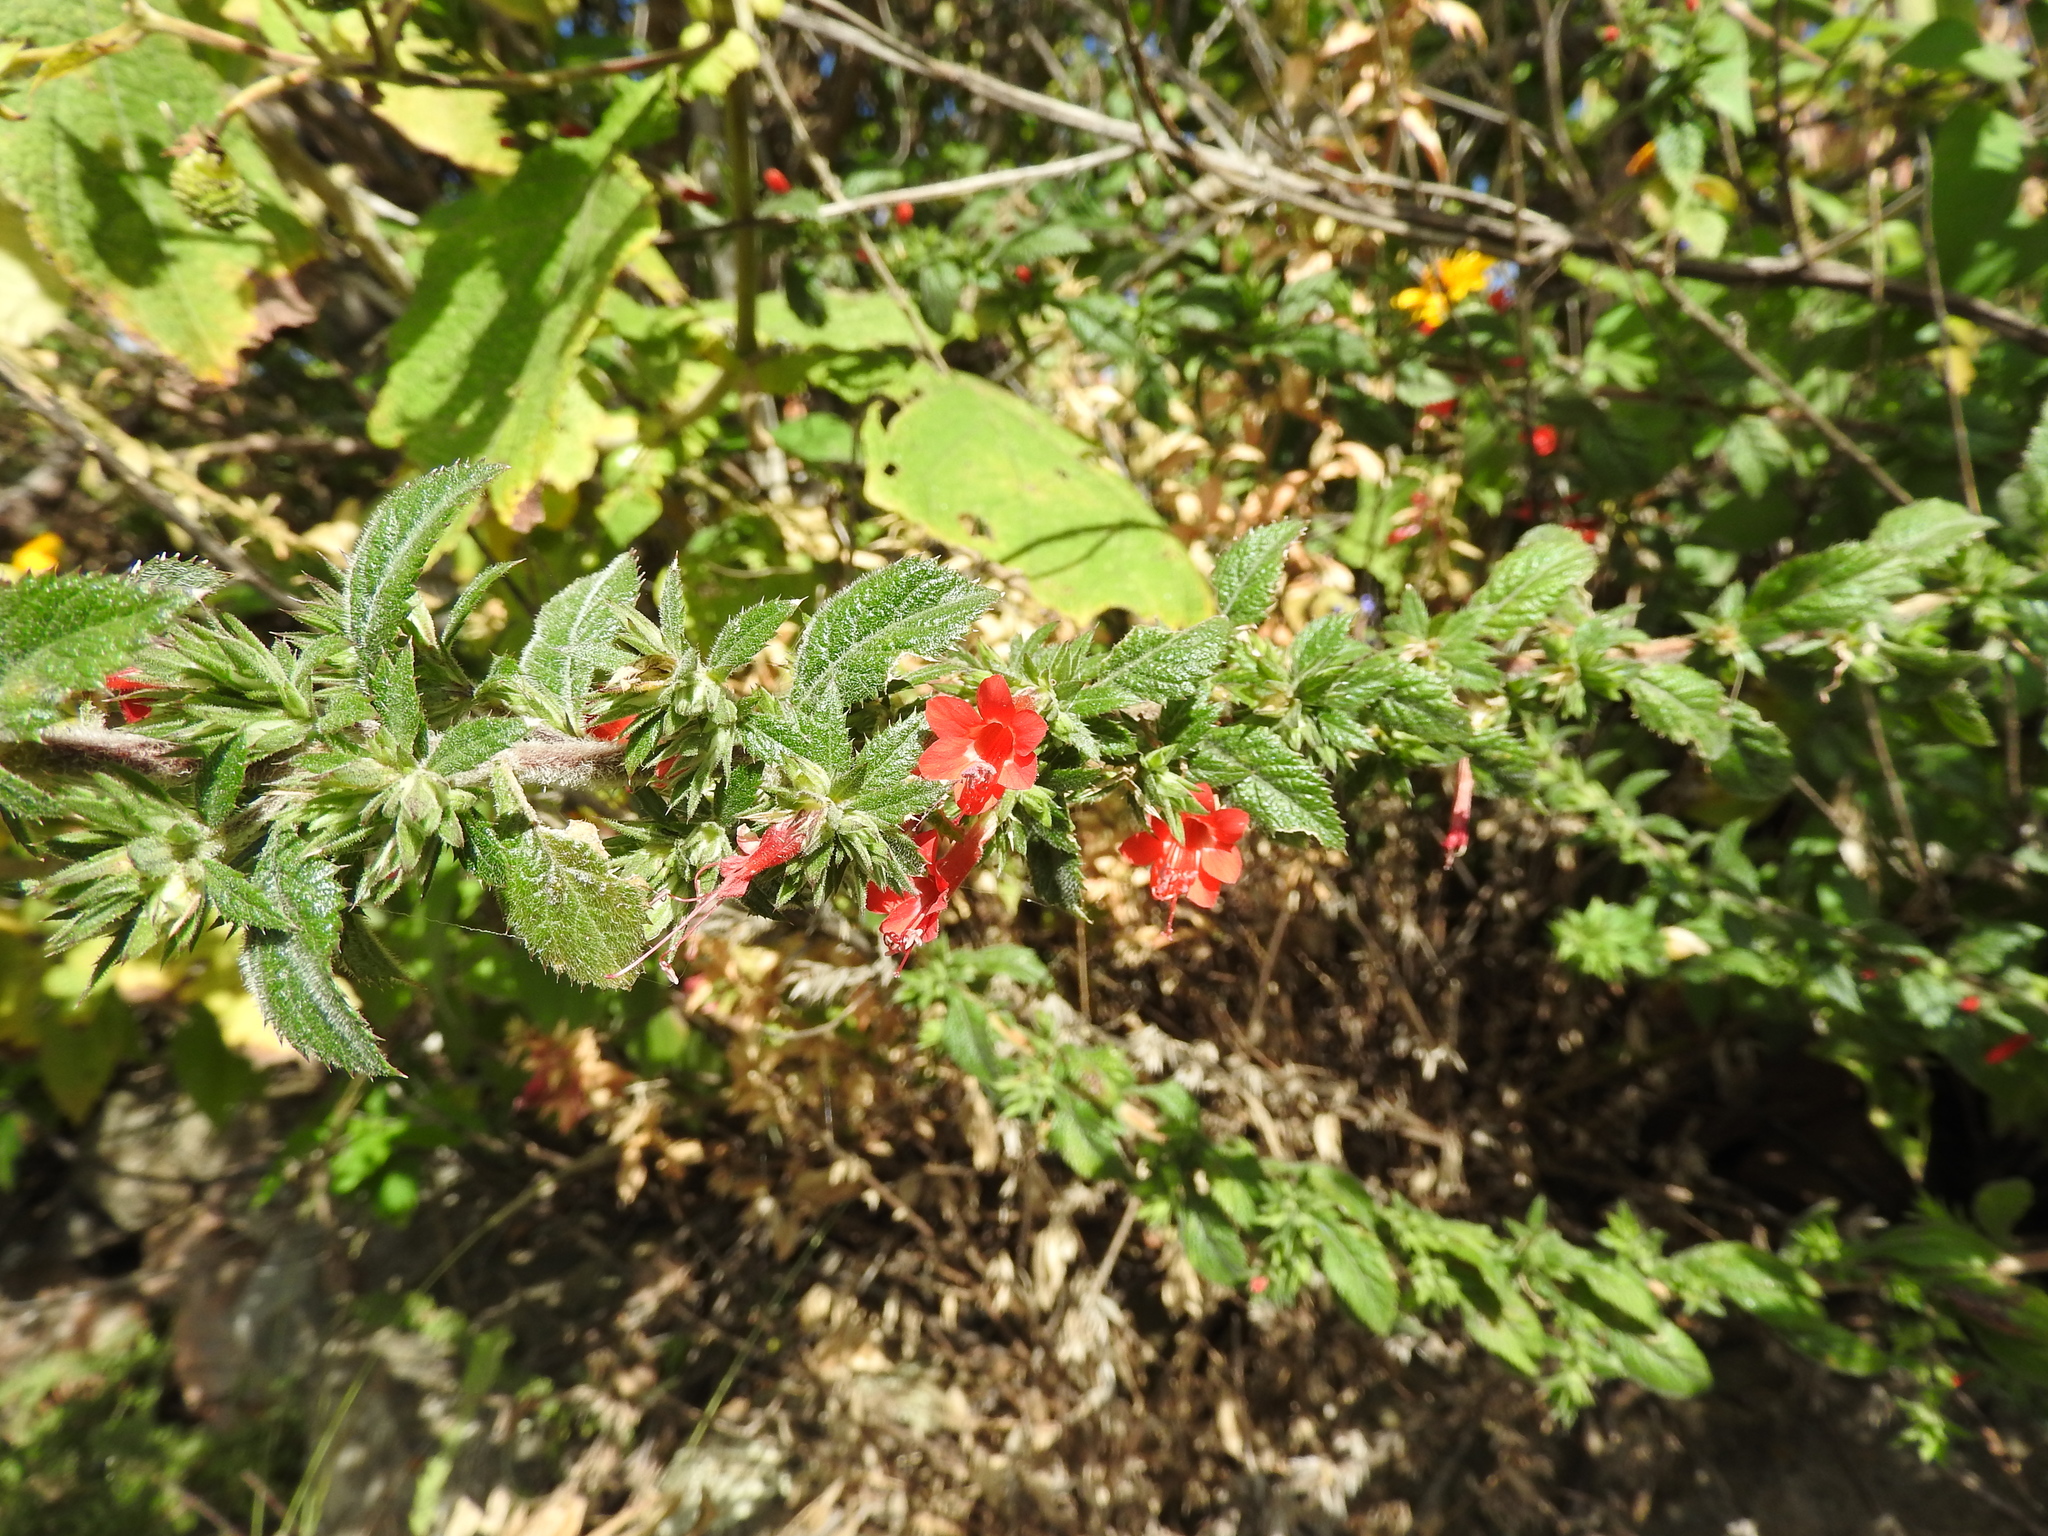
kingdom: Plantae
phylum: Tracheophyta
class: Magnoliopsida
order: Ericales
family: Polemoniaceae
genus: Loeselia
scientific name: Loeselia mexicana
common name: Mexican false calico
